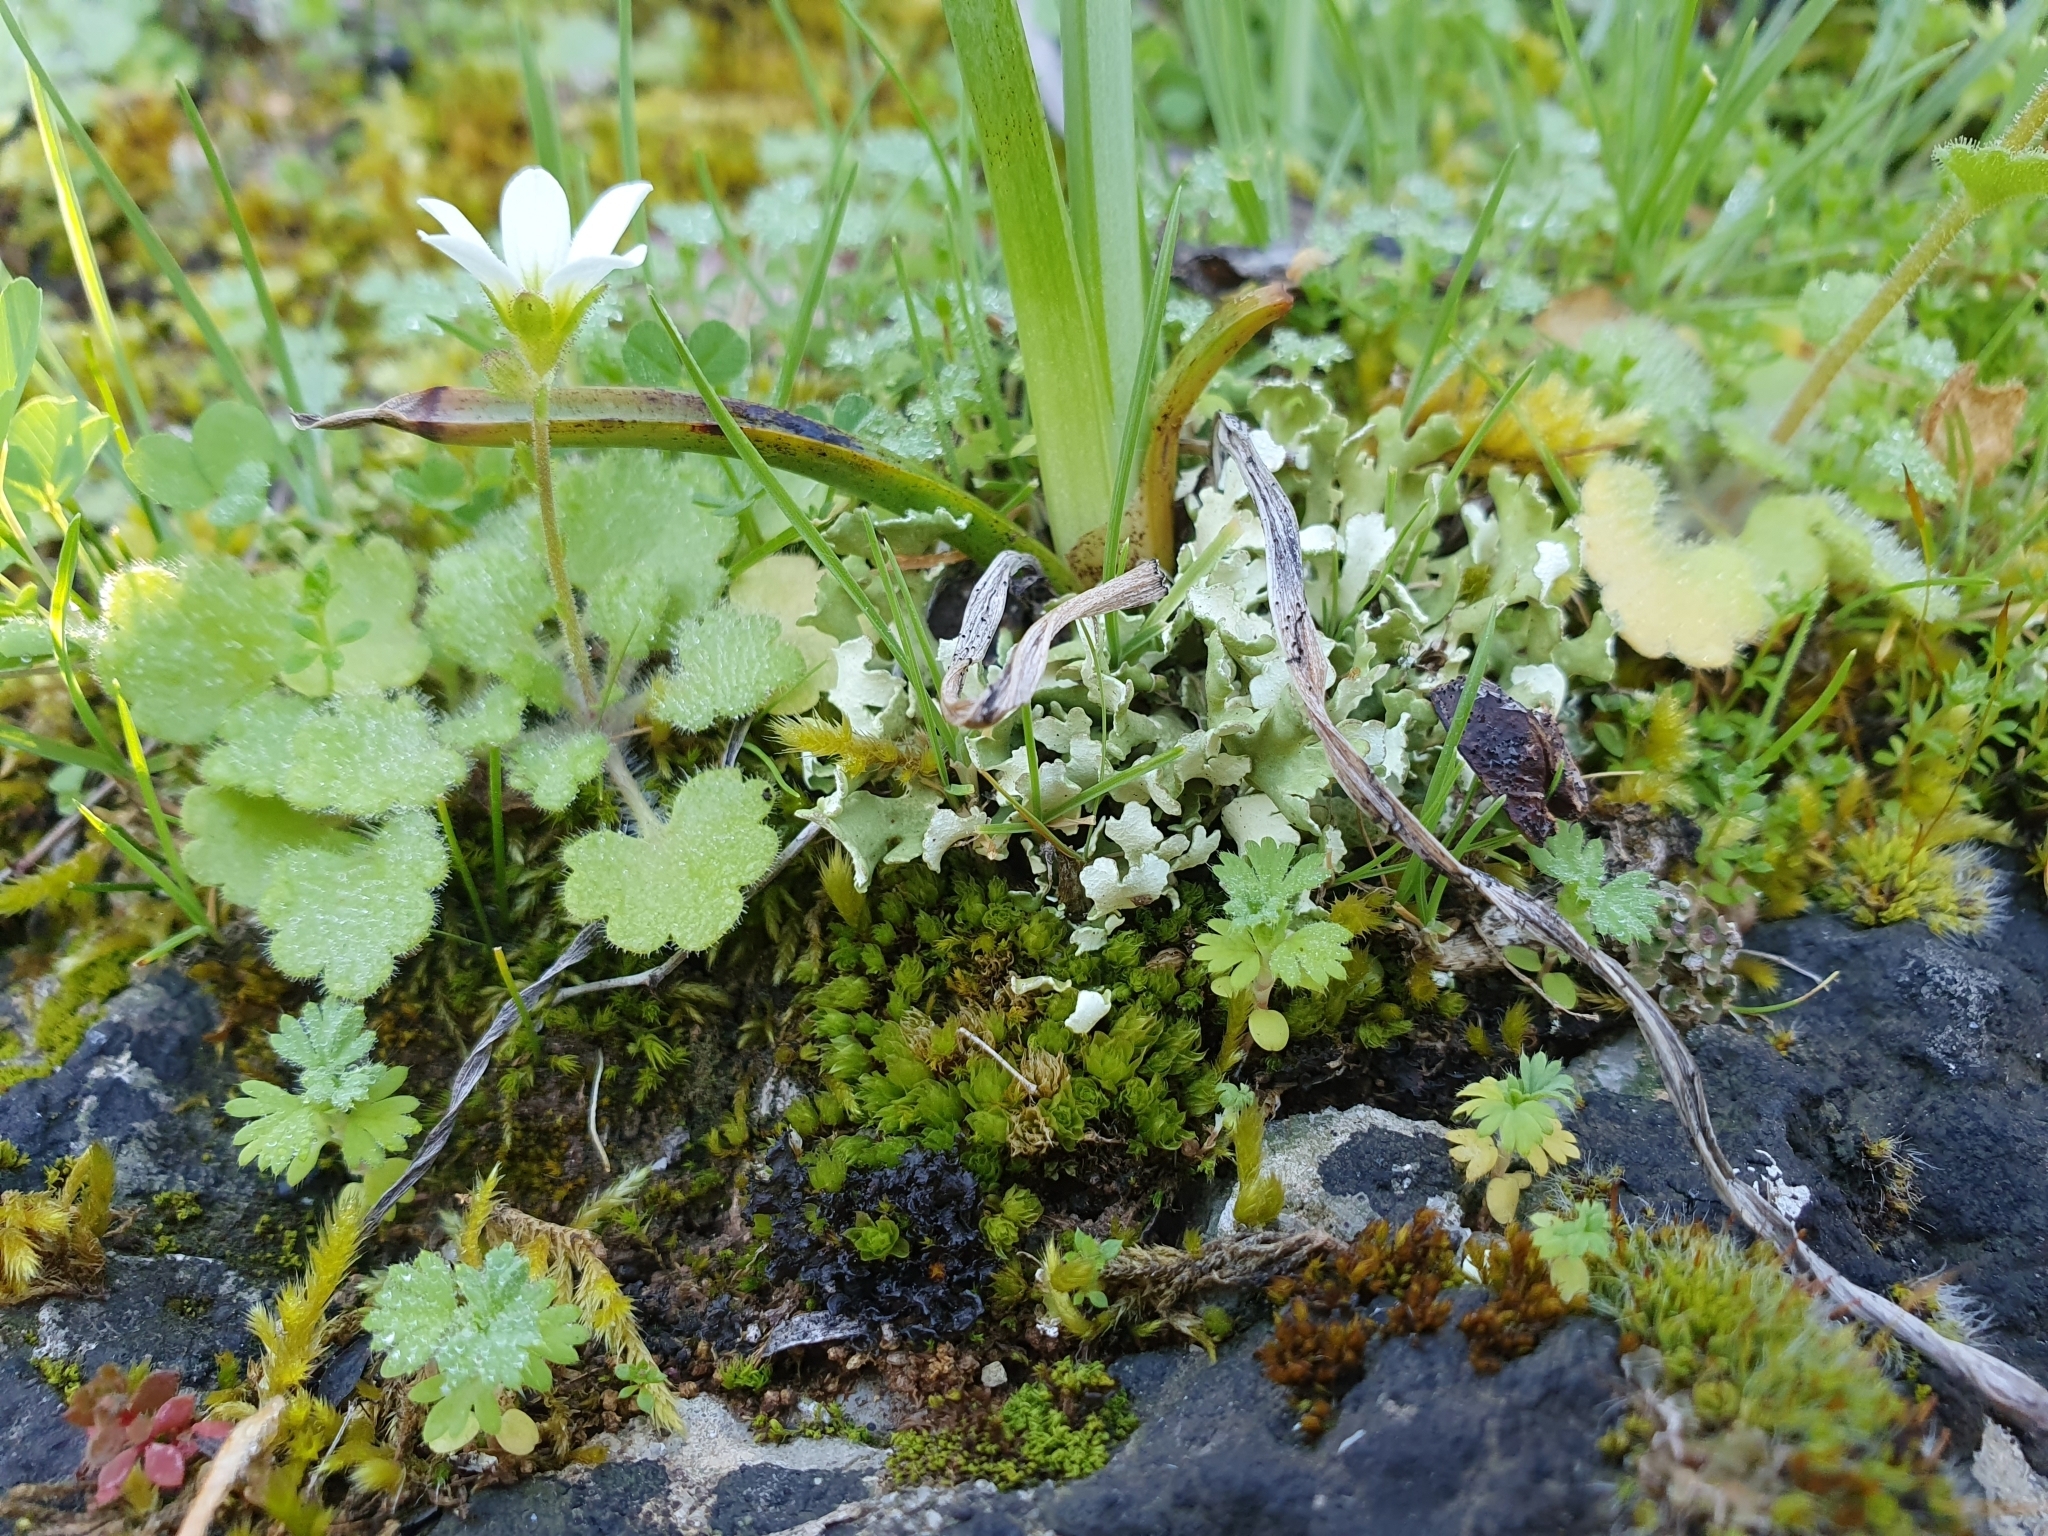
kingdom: Plantae
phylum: Tracheophyta
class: Magnoliopsida
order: Saxifragales
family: Saxifragaceae
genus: Saxifraga
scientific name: Saxifraga carpetana
